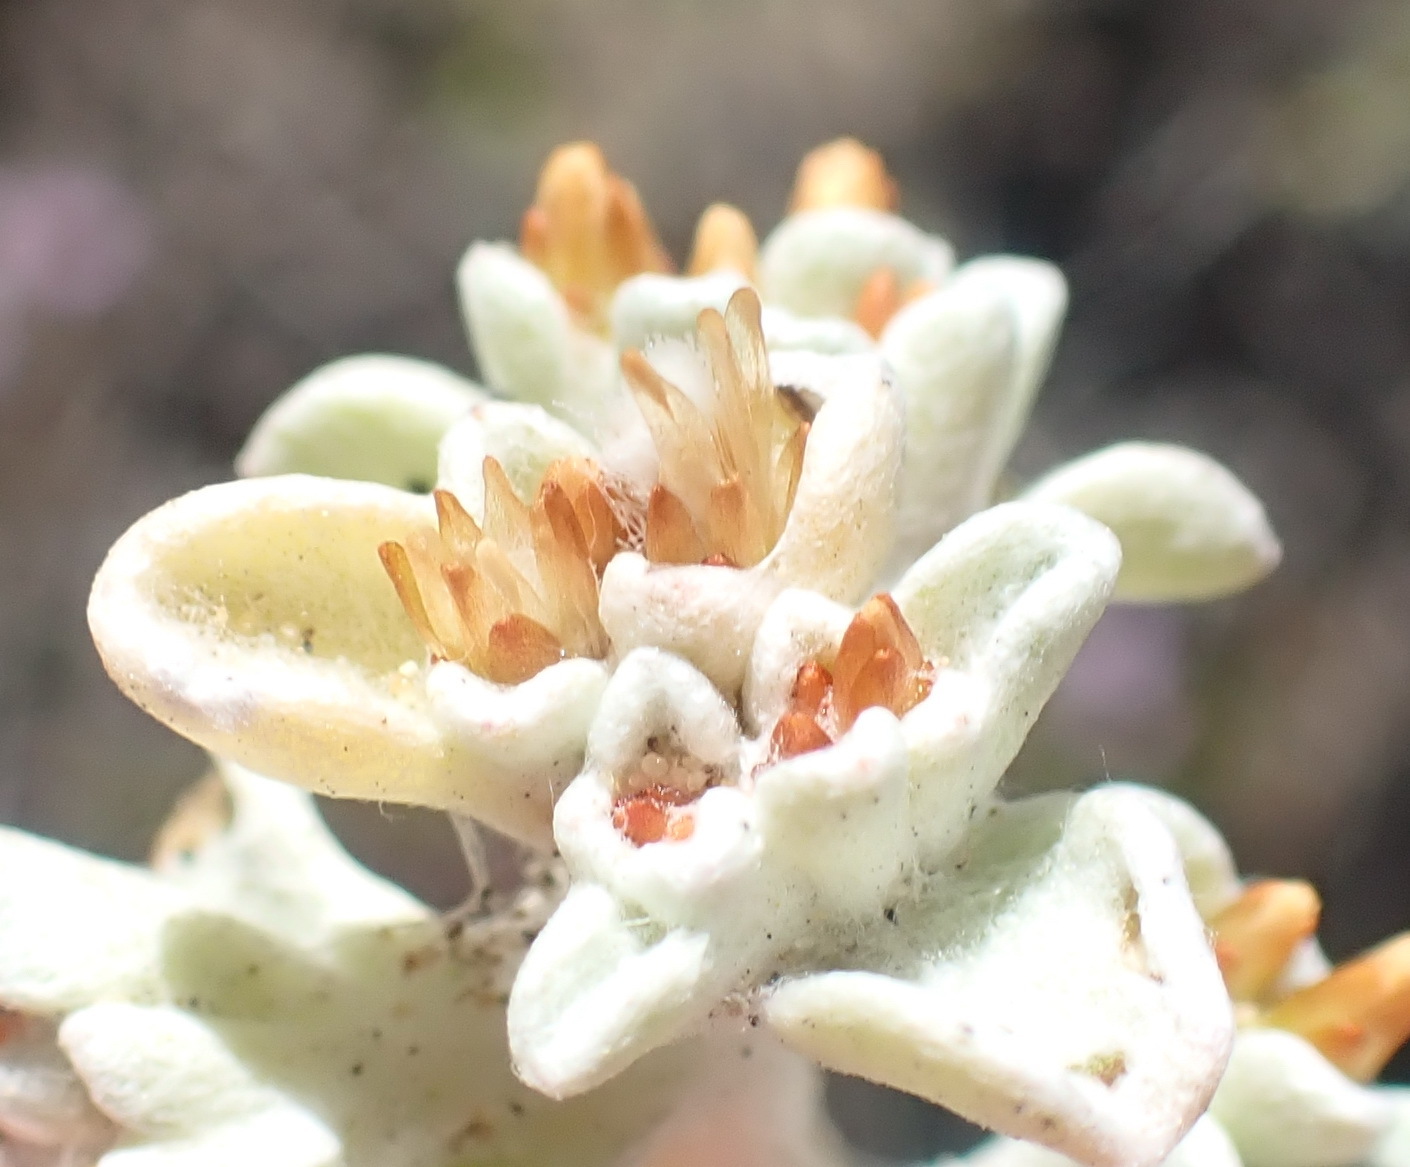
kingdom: Plantae
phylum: Tracheophyta
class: Magnoliopsida
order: Asterales
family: Asteraceae
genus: Helichrysum
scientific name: Helichrysum litorale
